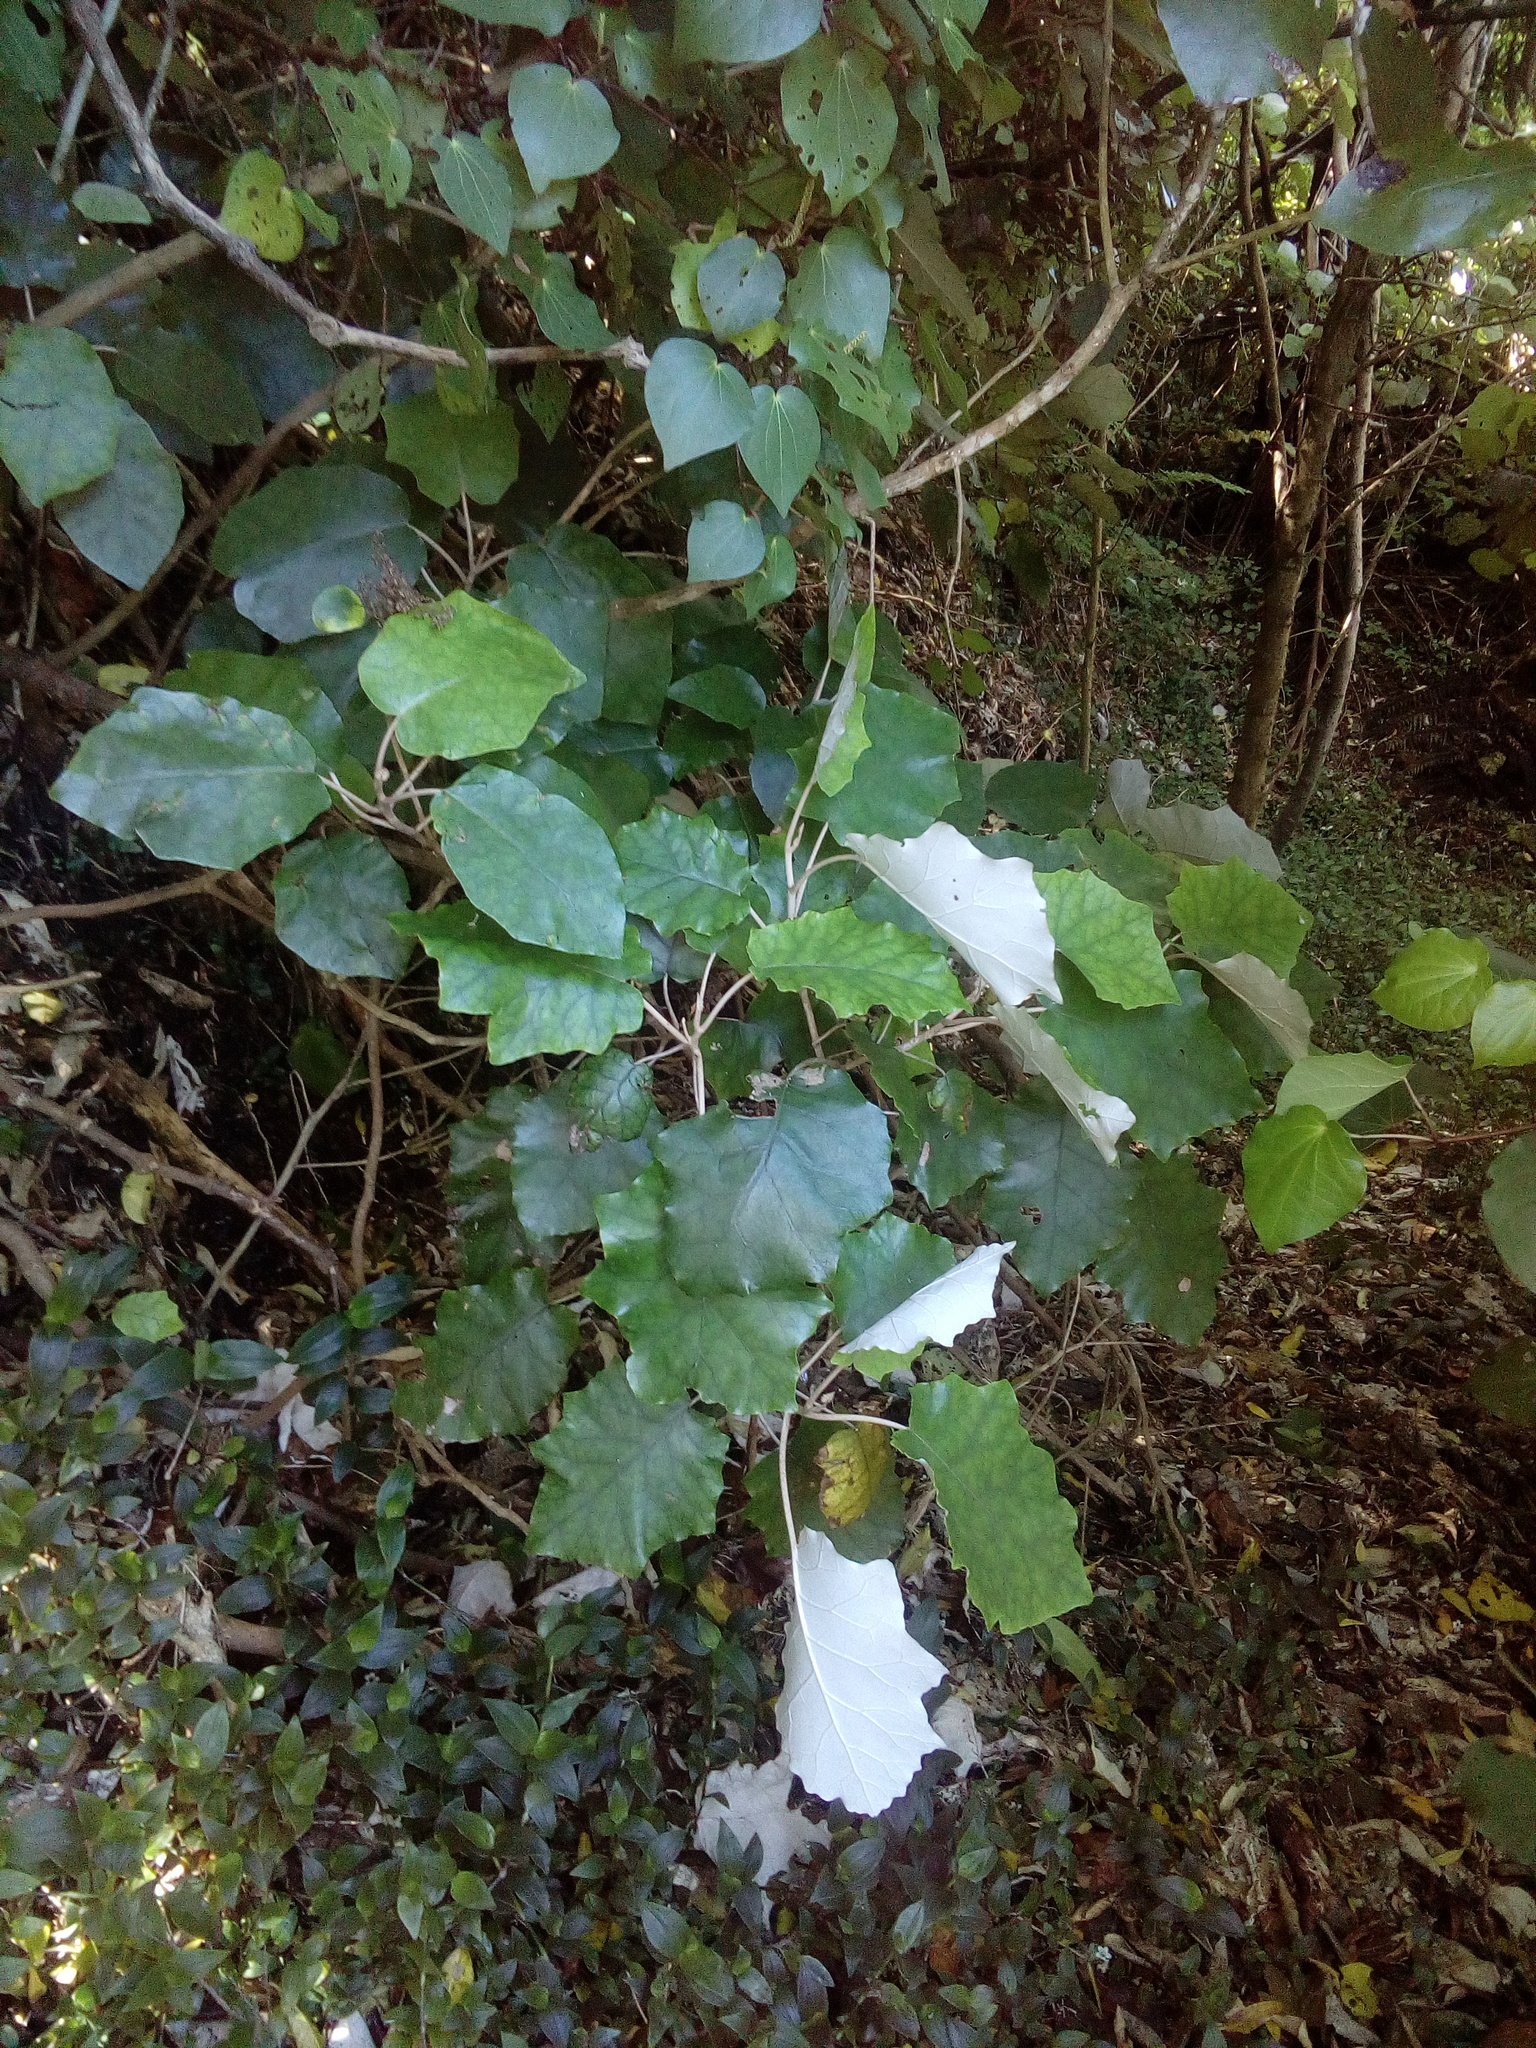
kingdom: Plantae
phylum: Tracheophyta
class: Magnoliopsida
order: Asterales
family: Asteraceae
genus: Brachyglottis
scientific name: Brachyglottis repanda
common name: Hedge ragwort
